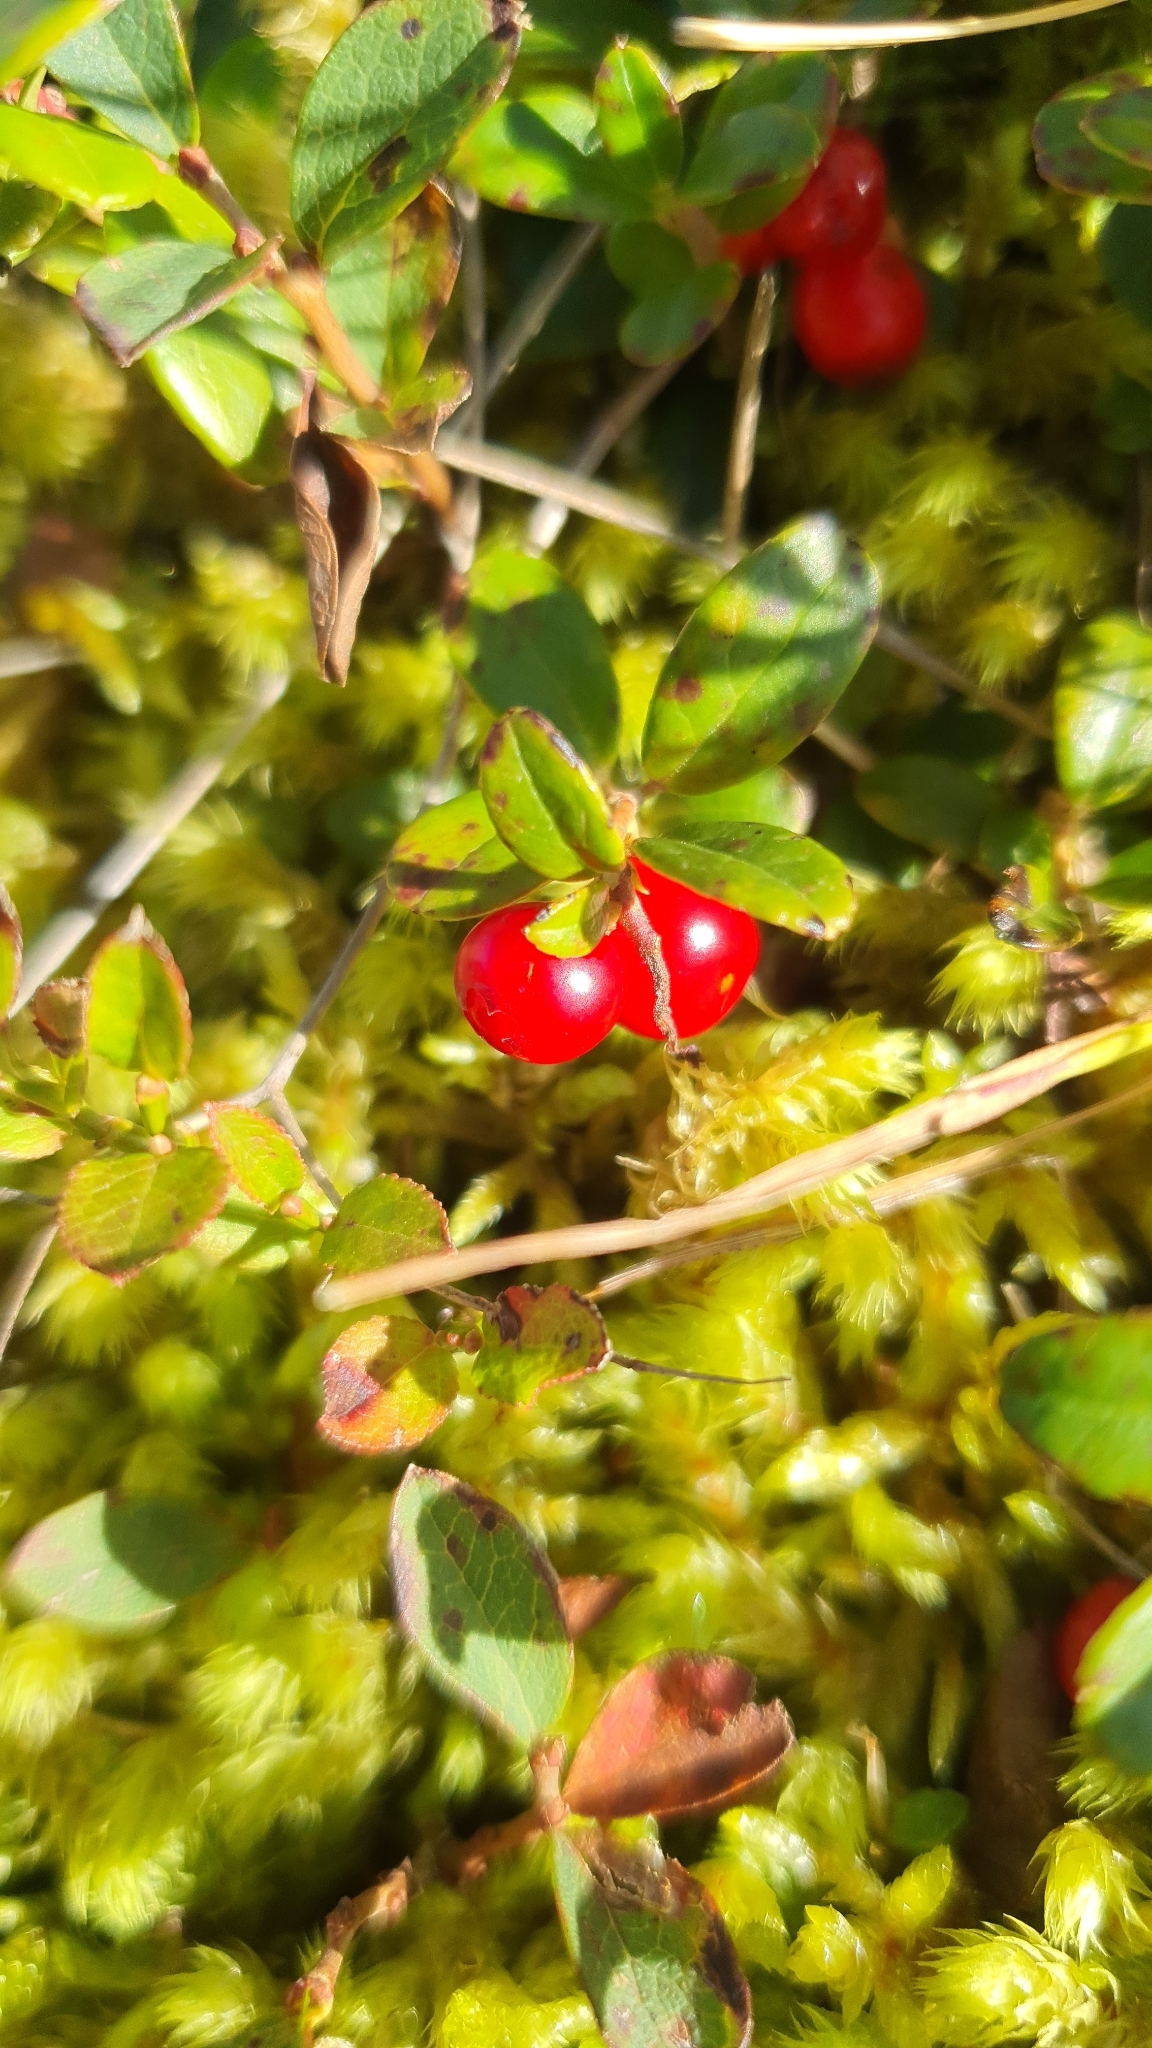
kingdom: Plantae
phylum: Tracheophyta
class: Magnoliopsida
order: Ericales
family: Ericaceae
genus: Vaccinium
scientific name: Vaccinium vitis-idaea
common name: Cowberry
